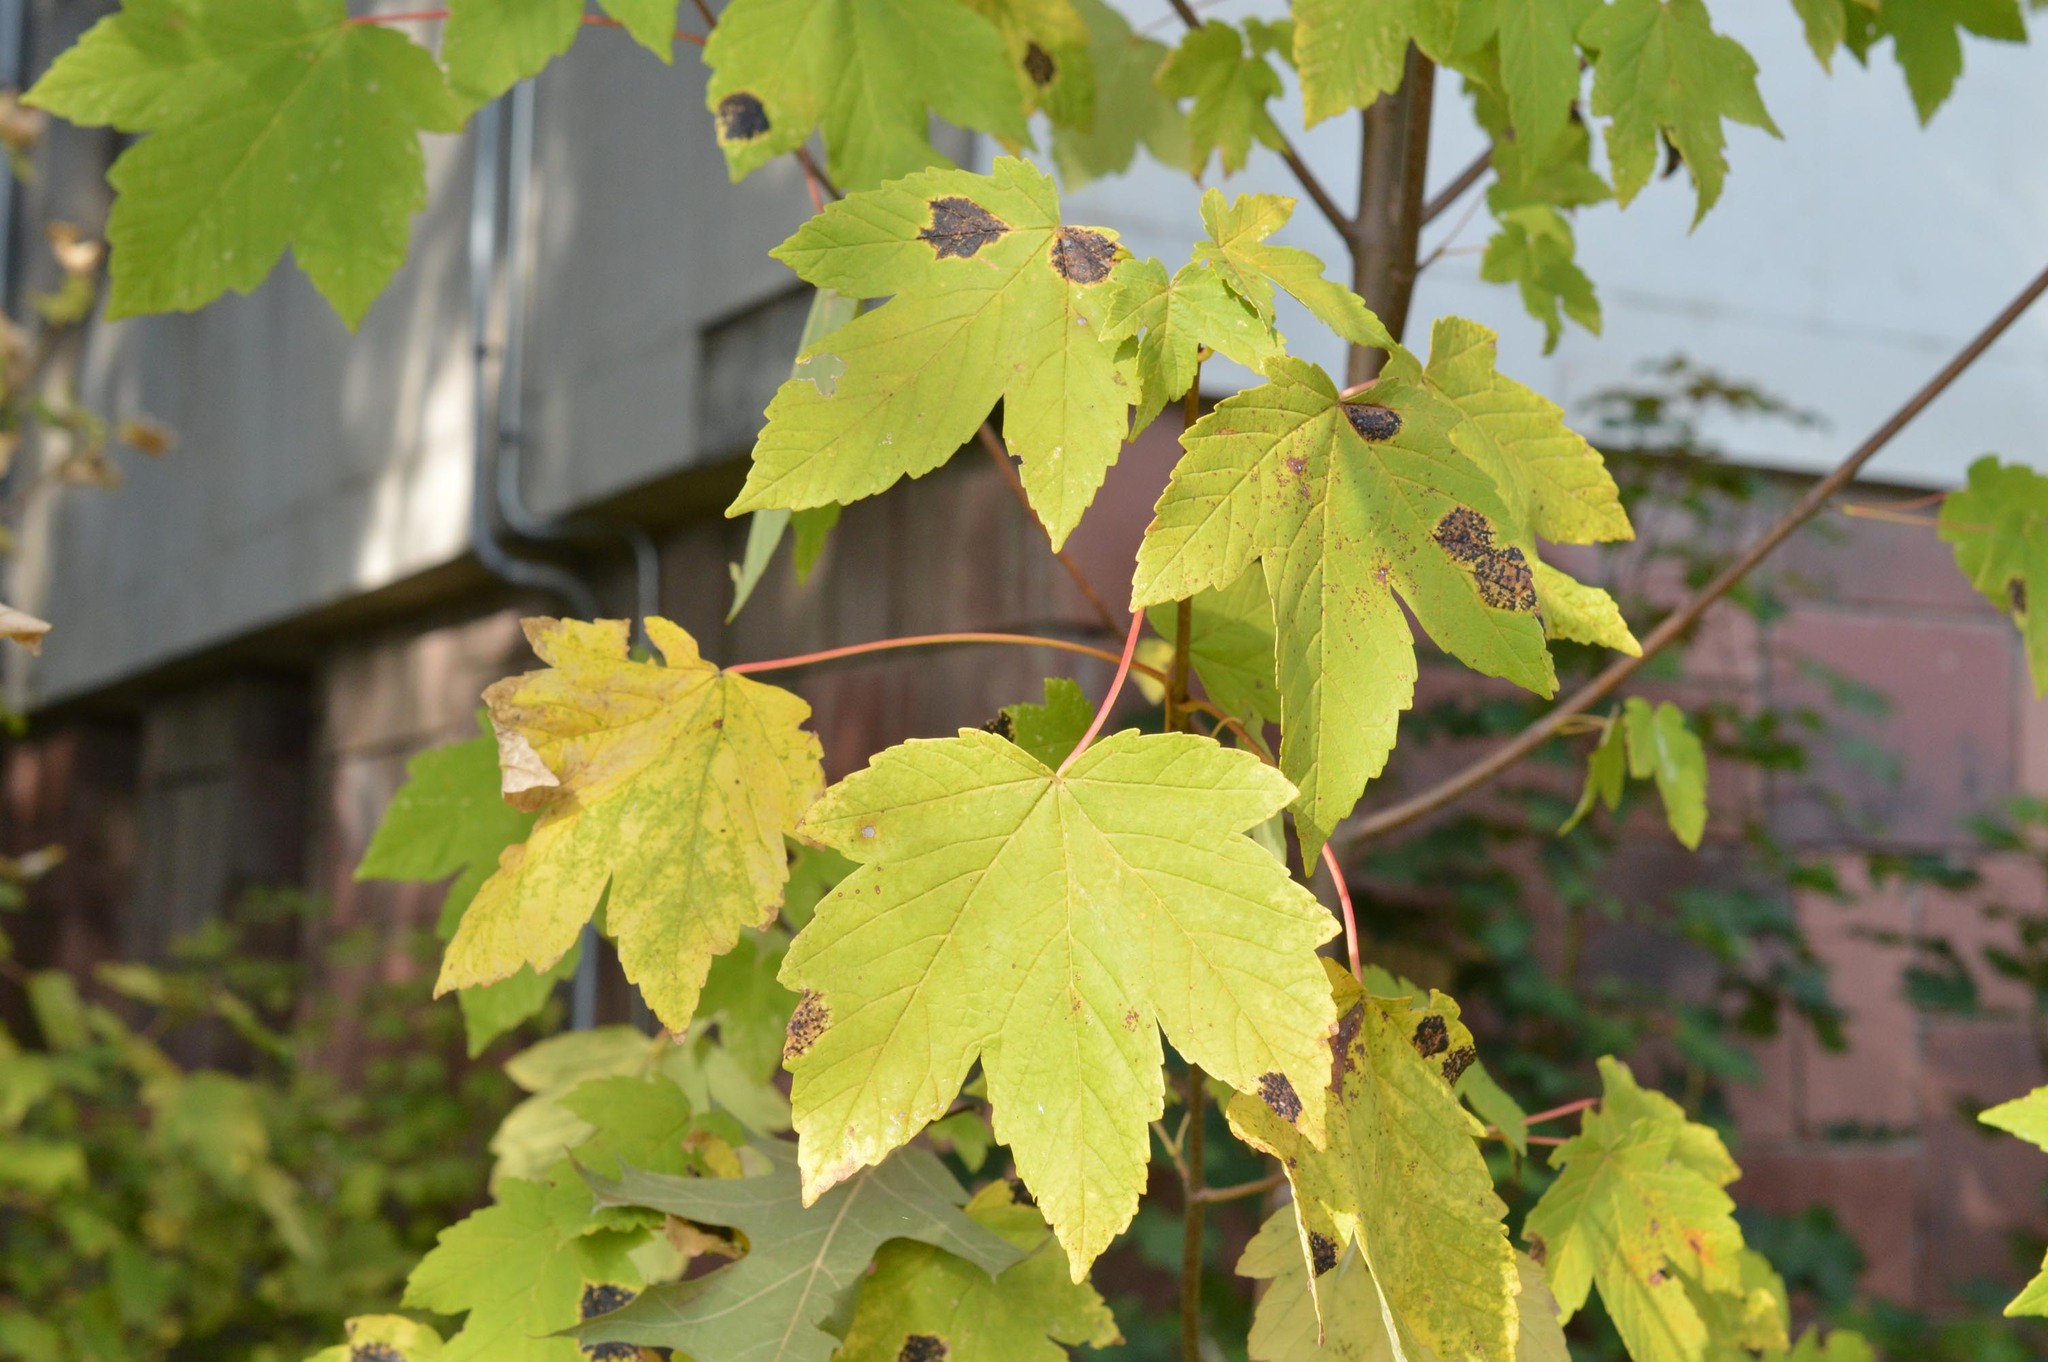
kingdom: Plantae
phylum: Tracheophyta
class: Magnoliopsida
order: Sapindales
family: Sapindaceae
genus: Acer
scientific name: Acer pseudoplatanus
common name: Sycamore
